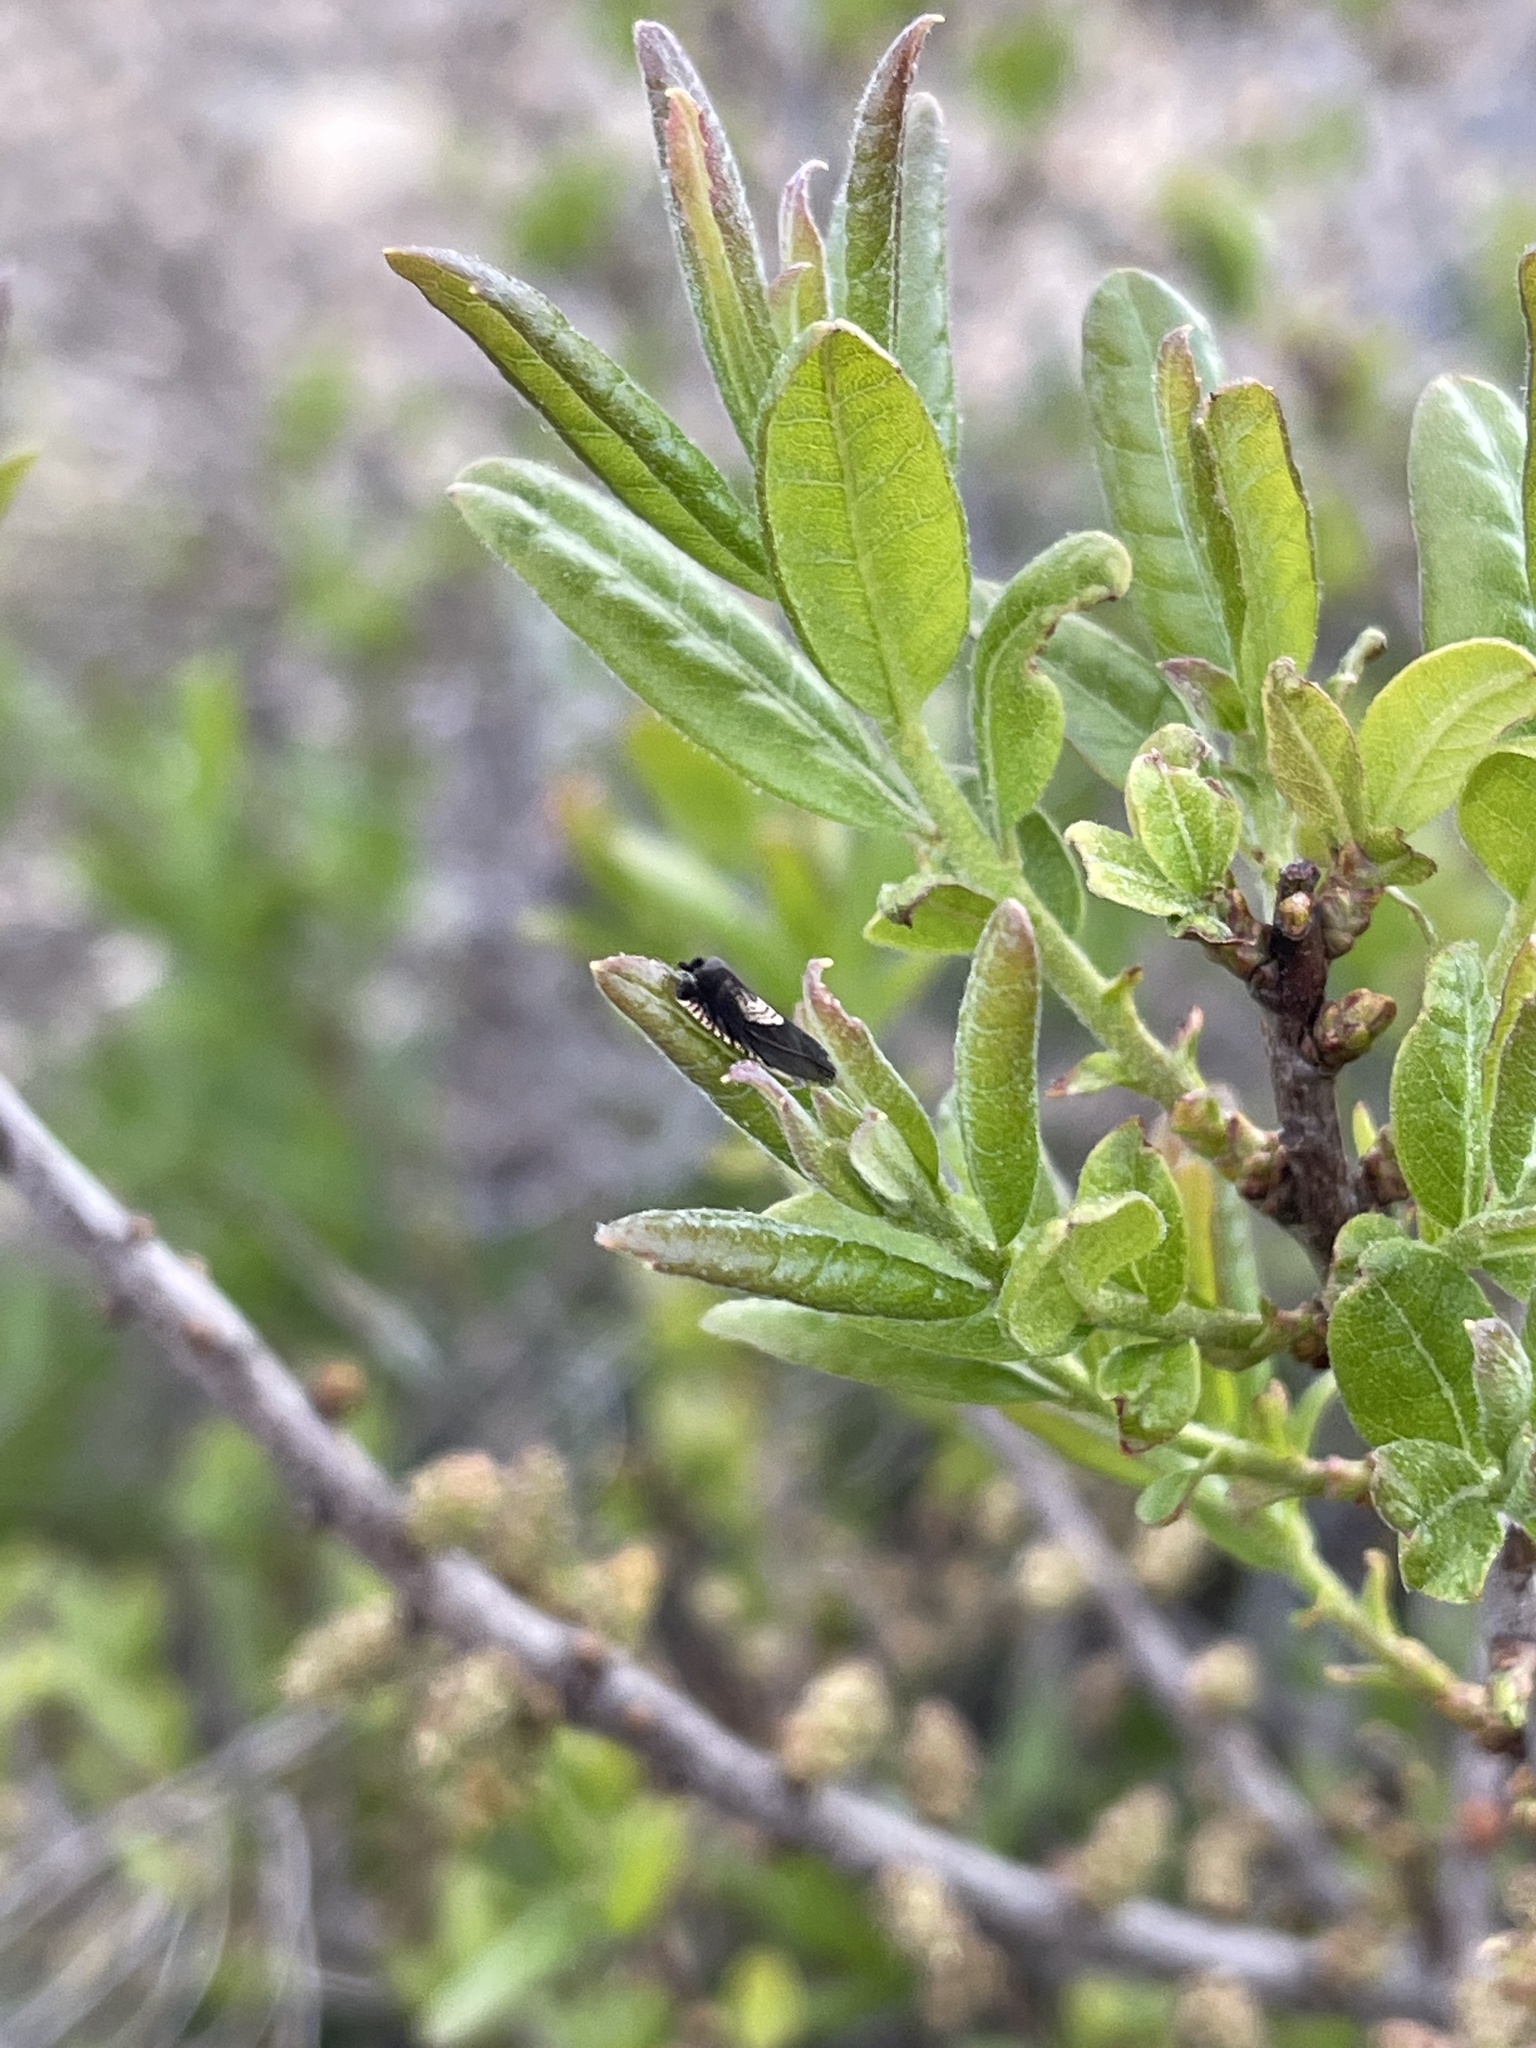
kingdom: Animalia
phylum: Arthropoda
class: Insecta
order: Lepidoptera
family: Tortricidae
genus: Grapholita
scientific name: Grapholita tristrigana
